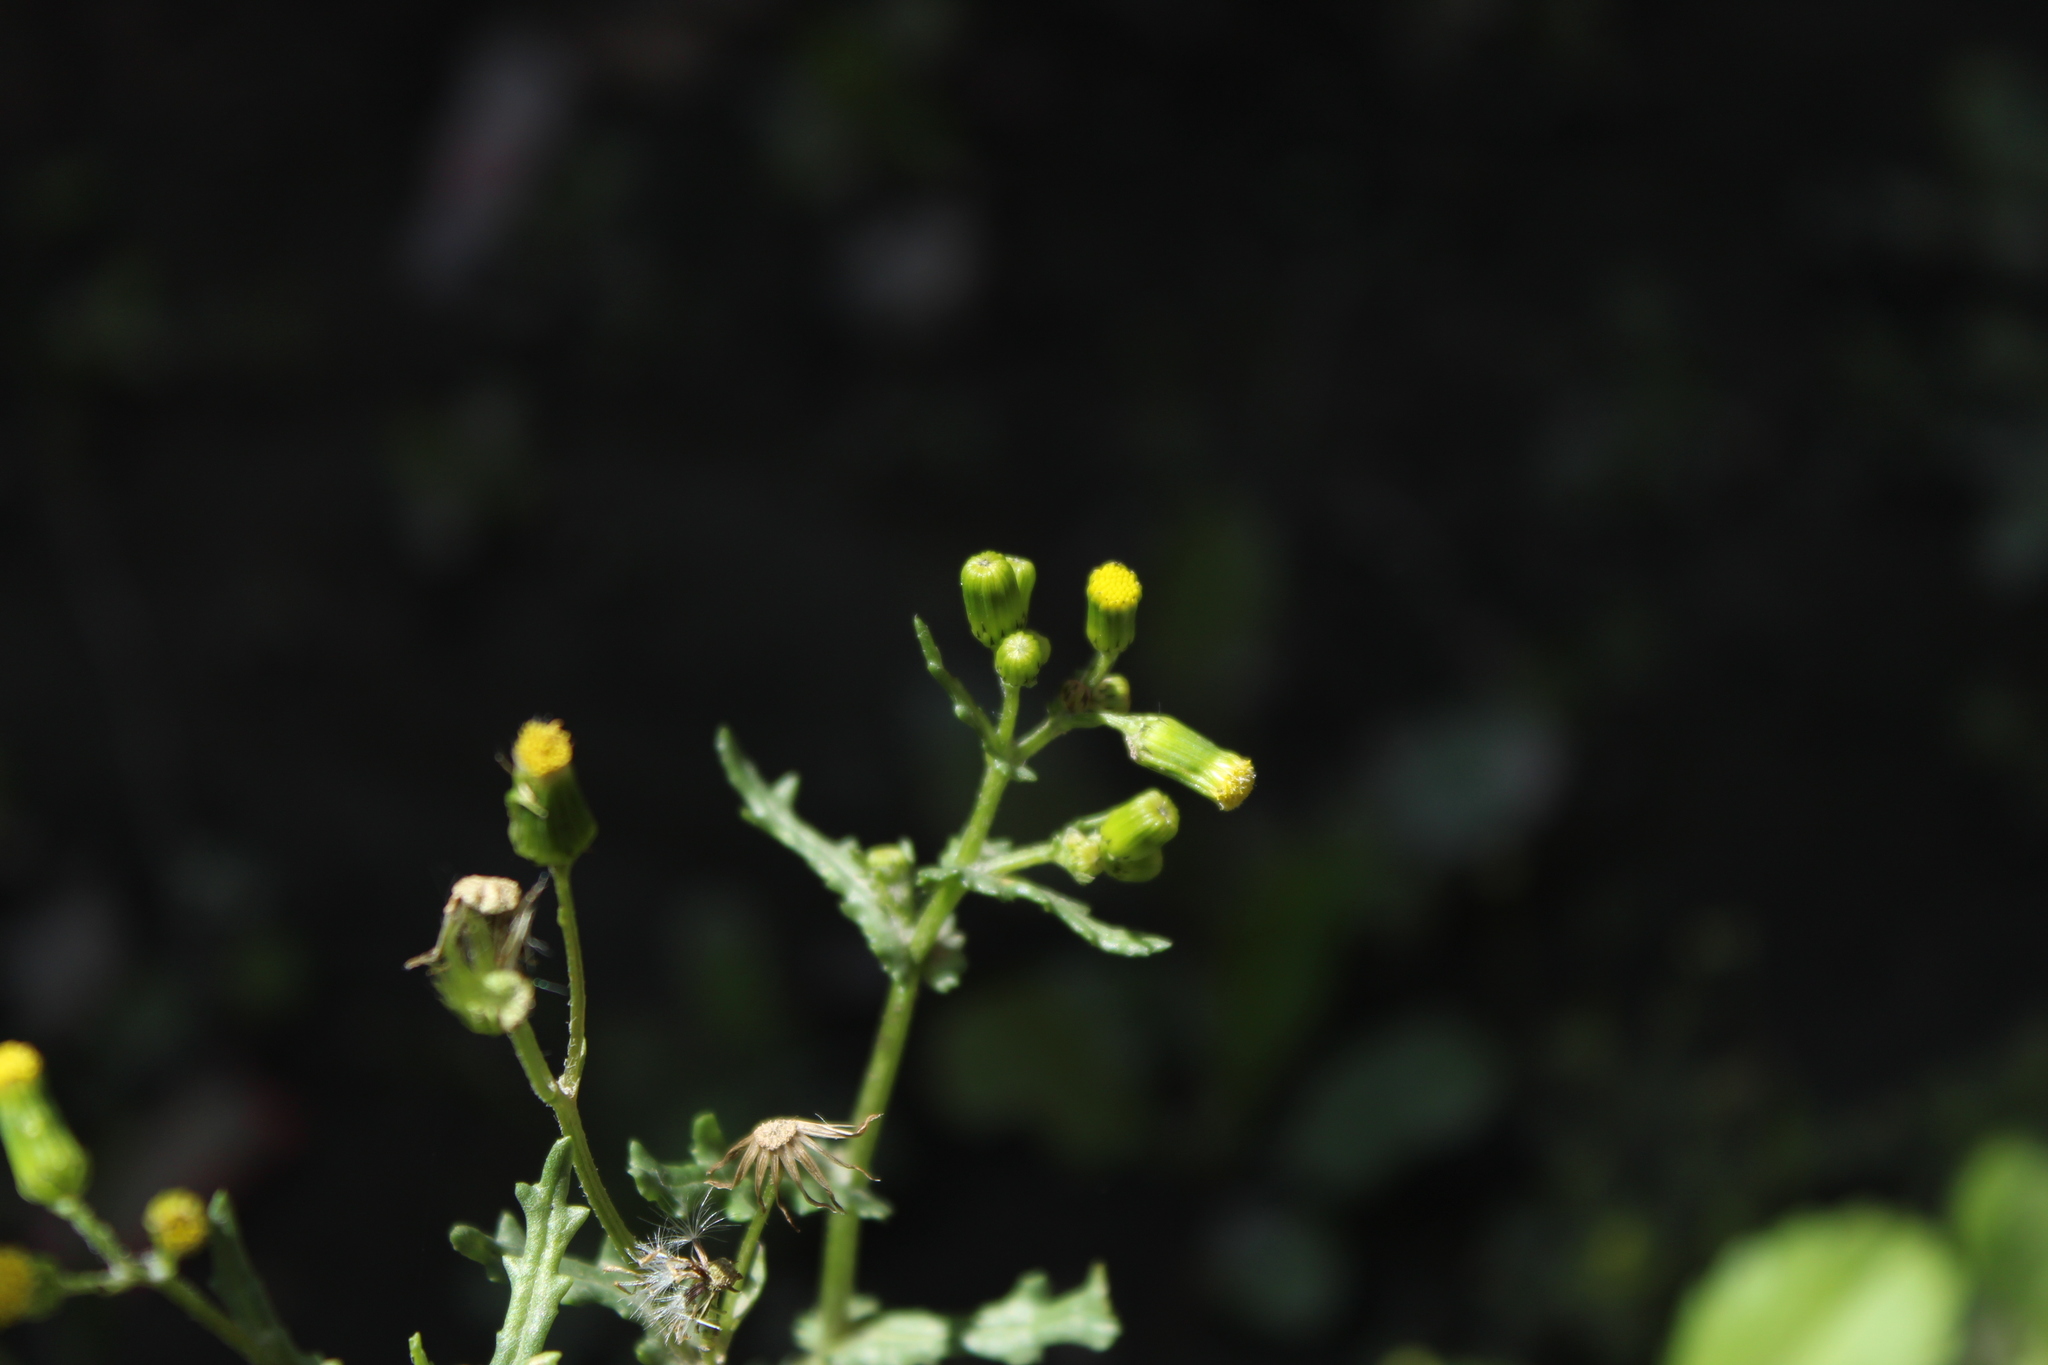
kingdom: Plantae
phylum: Tracheophyta
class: Magnoliopsida
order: Asterales
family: Asteraceae
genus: Senecio
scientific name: Senecio vulgaris
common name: Old-man-in-the-spring
